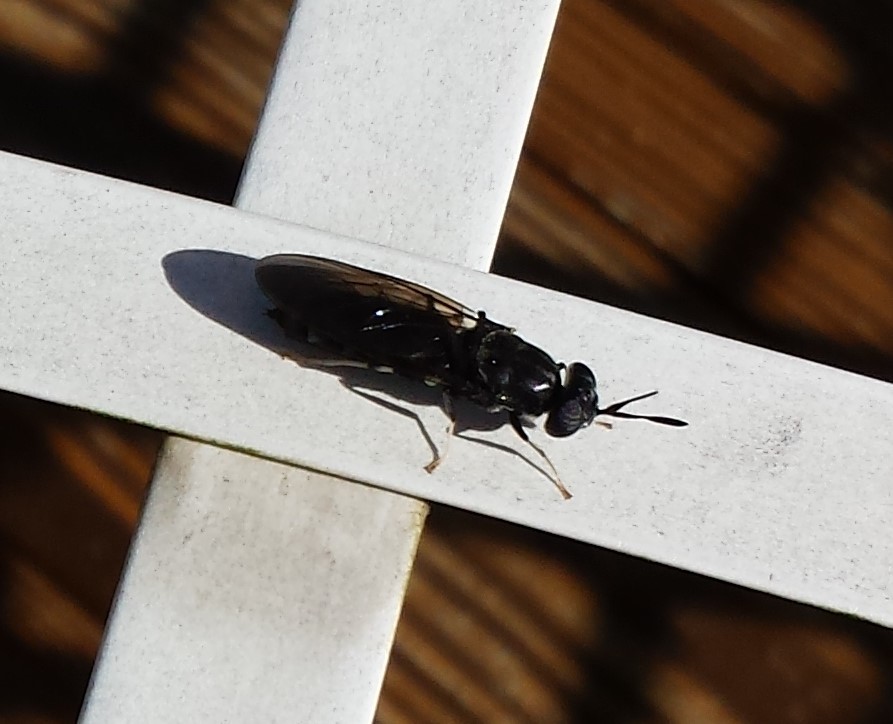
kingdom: Animalia
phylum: Arthropoda
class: Insecta
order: Diptera
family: Stratiomyidae
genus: Hermetia
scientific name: Hermetia illucens
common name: Black soldier fly
